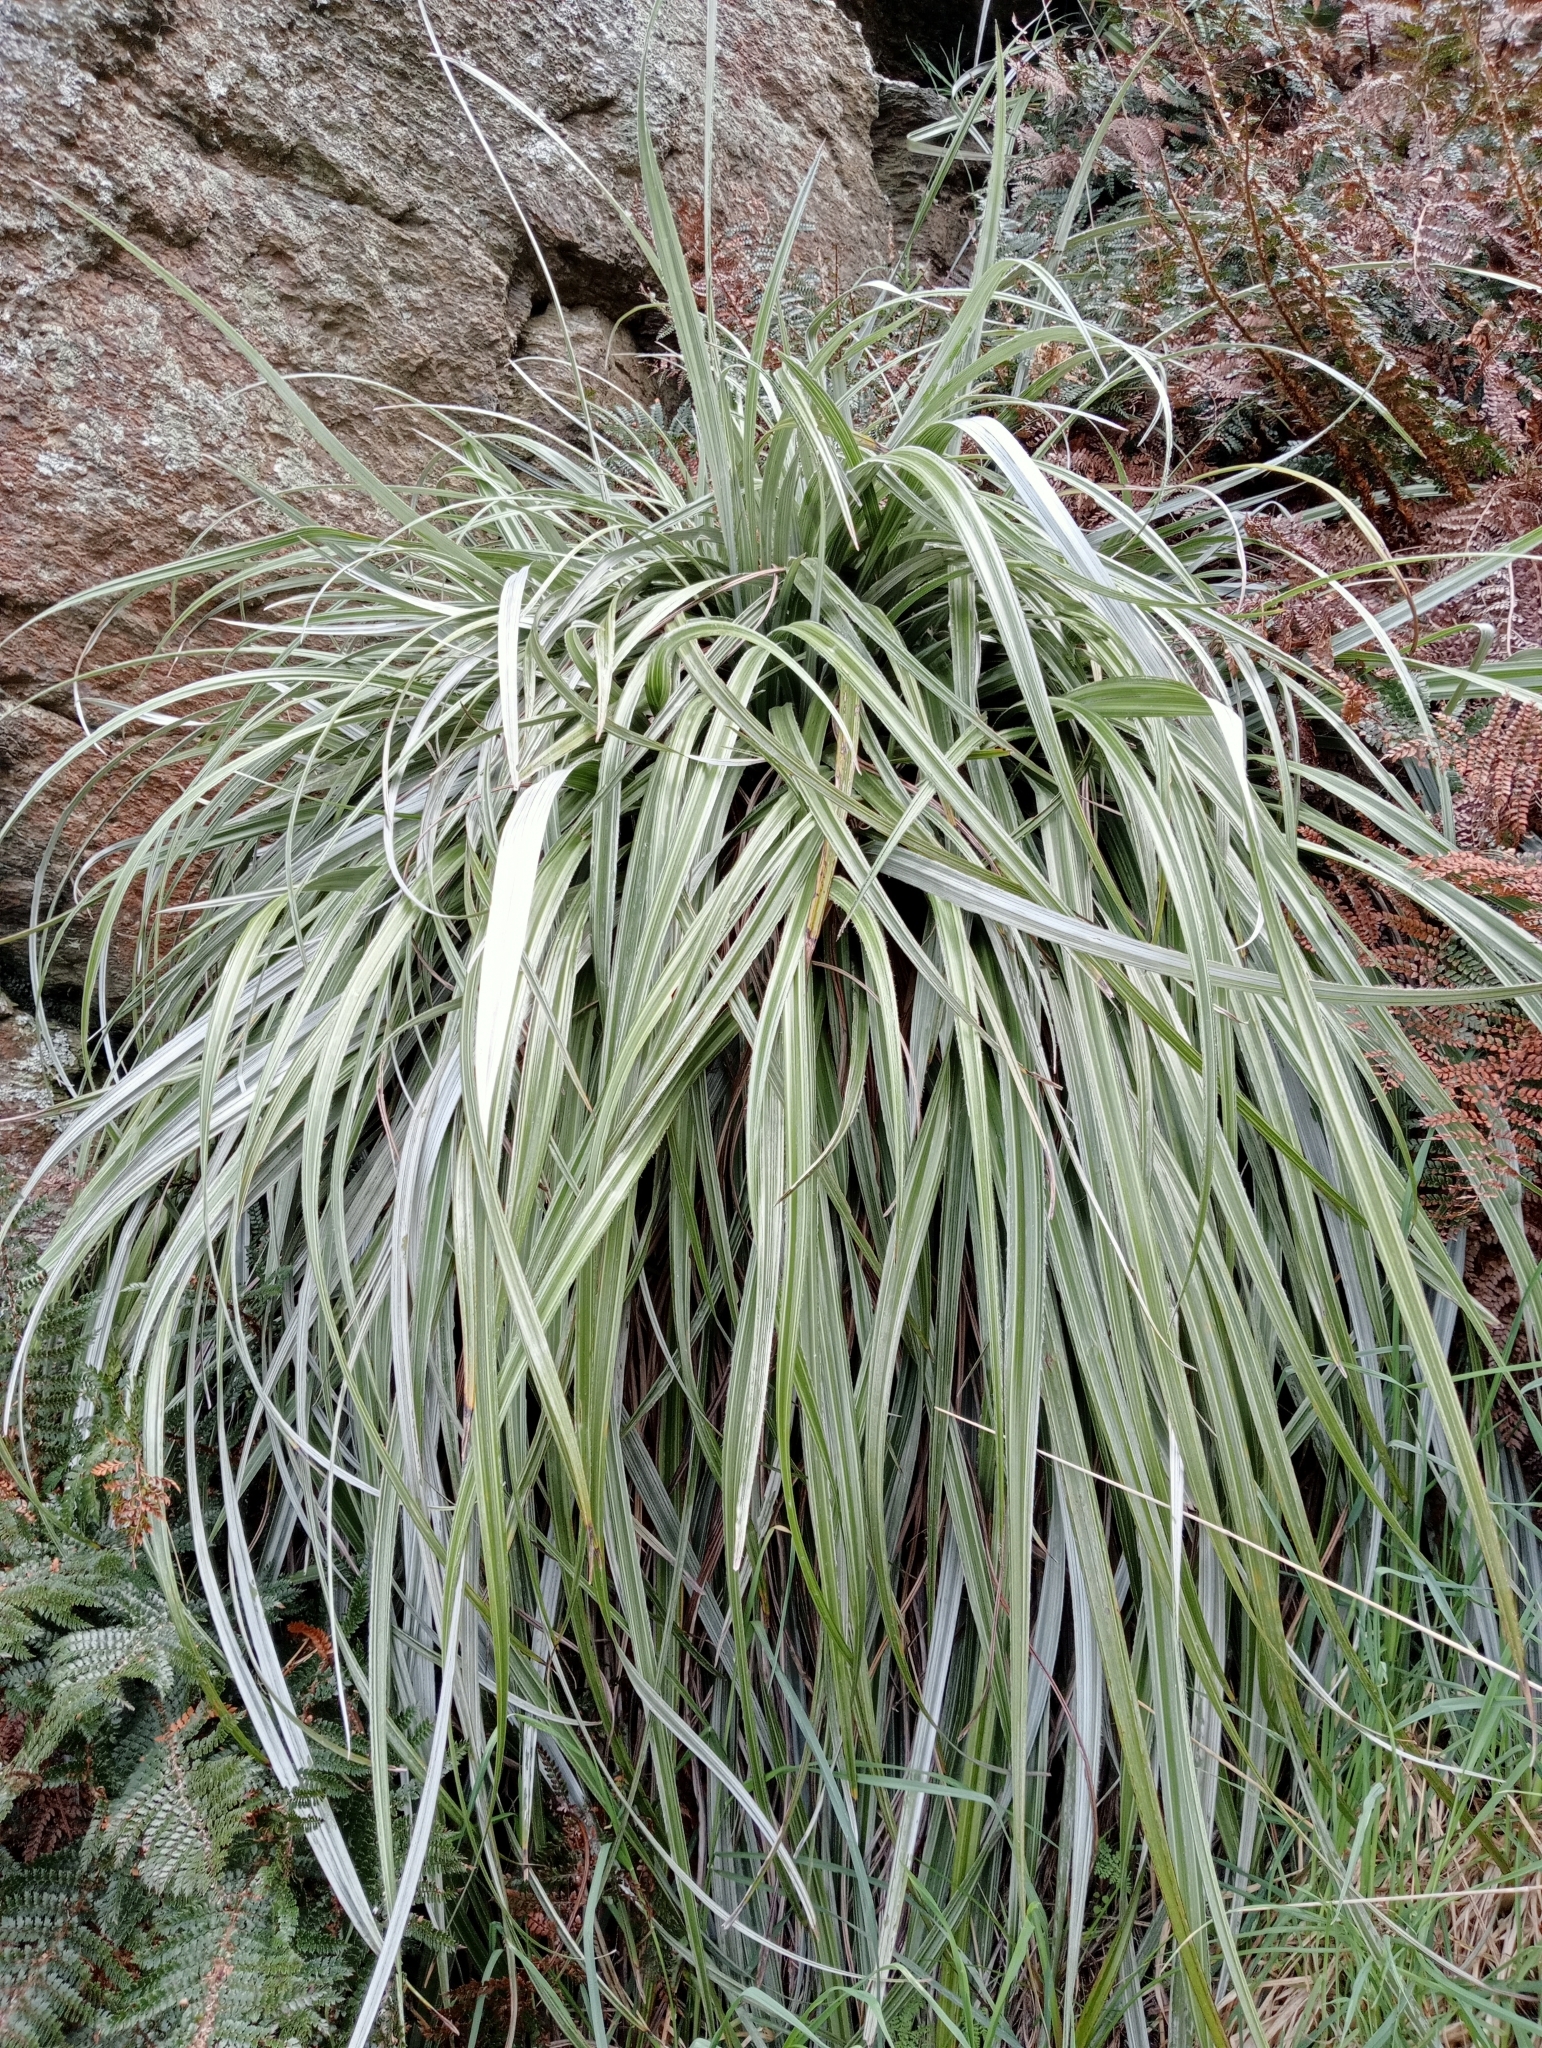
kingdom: Plantae
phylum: Tracheophyta
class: Liliopsida
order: Asparagales
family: Asteliaceae
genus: Astelia
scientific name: Astelia nervosa
